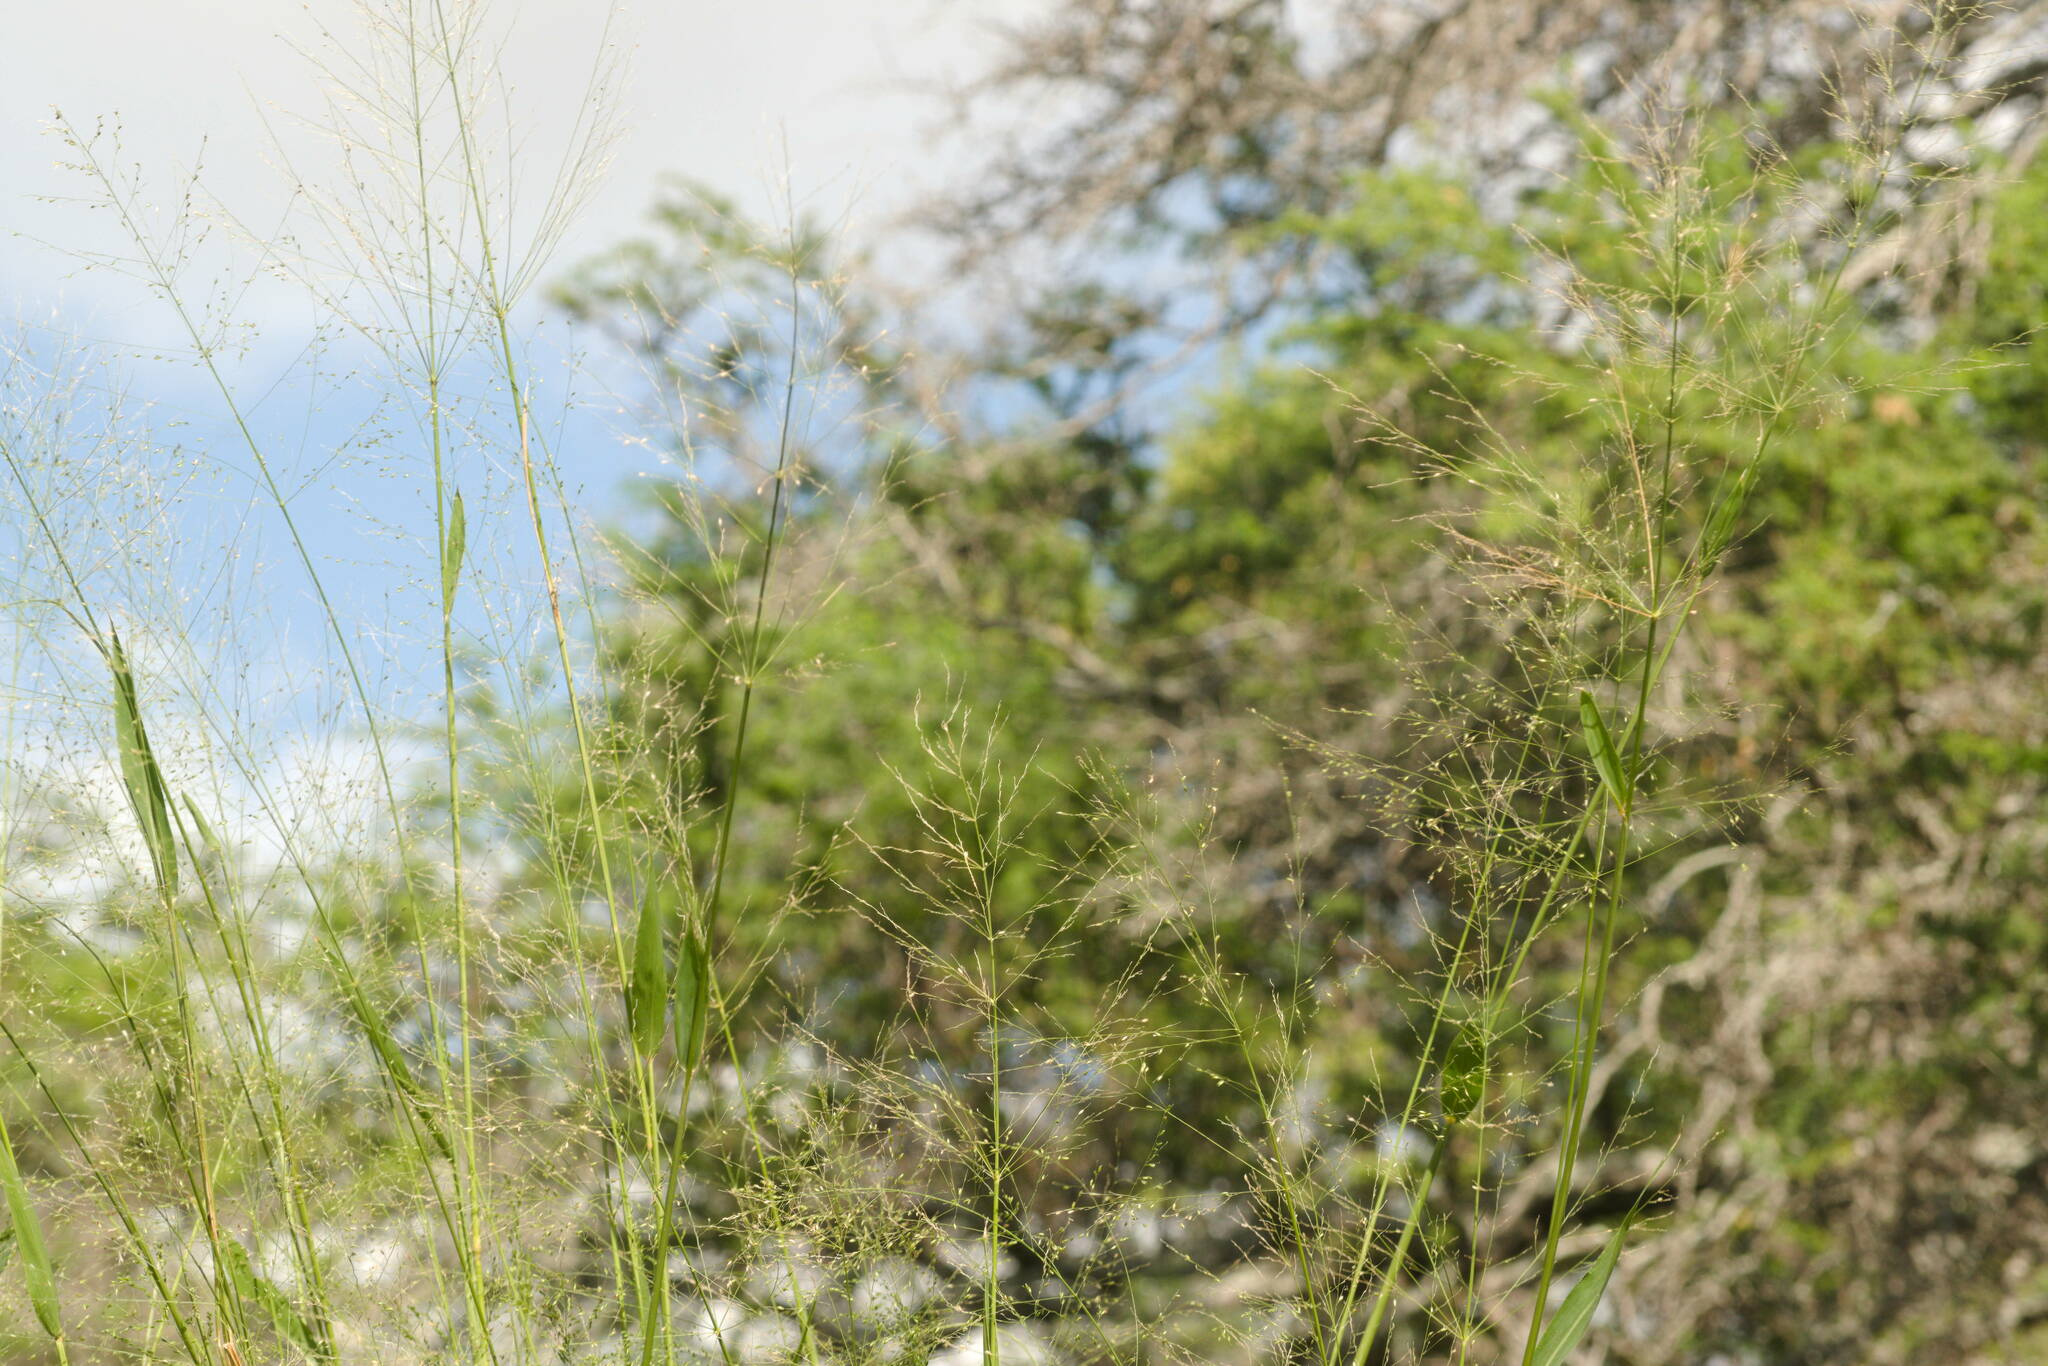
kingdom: Plantae
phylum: Tracheophyta
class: Liliopsida
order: Poales
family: Poaceae
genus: Megathyrsus
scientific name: Megathyrsus maximus
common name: Guineagrass
